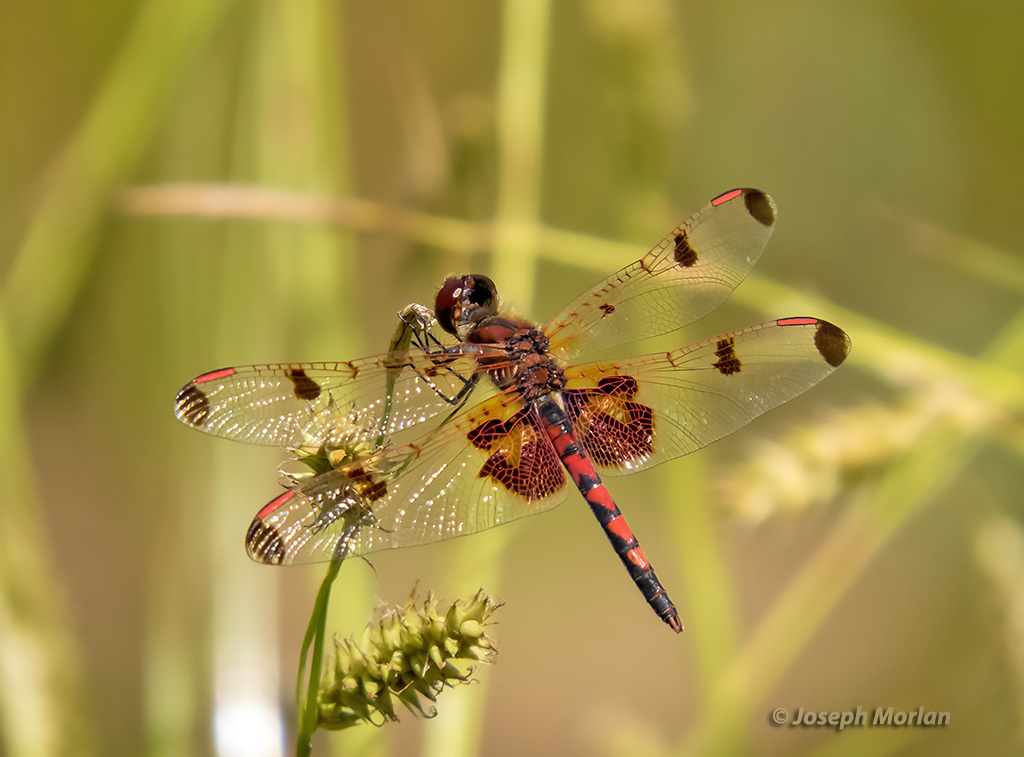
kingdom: Animalia
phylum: Arthropoda
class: Insecta
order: Odonata
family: Libellulidae
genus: Celithemis
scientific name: Celithemis elisa
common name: Calico pennant
